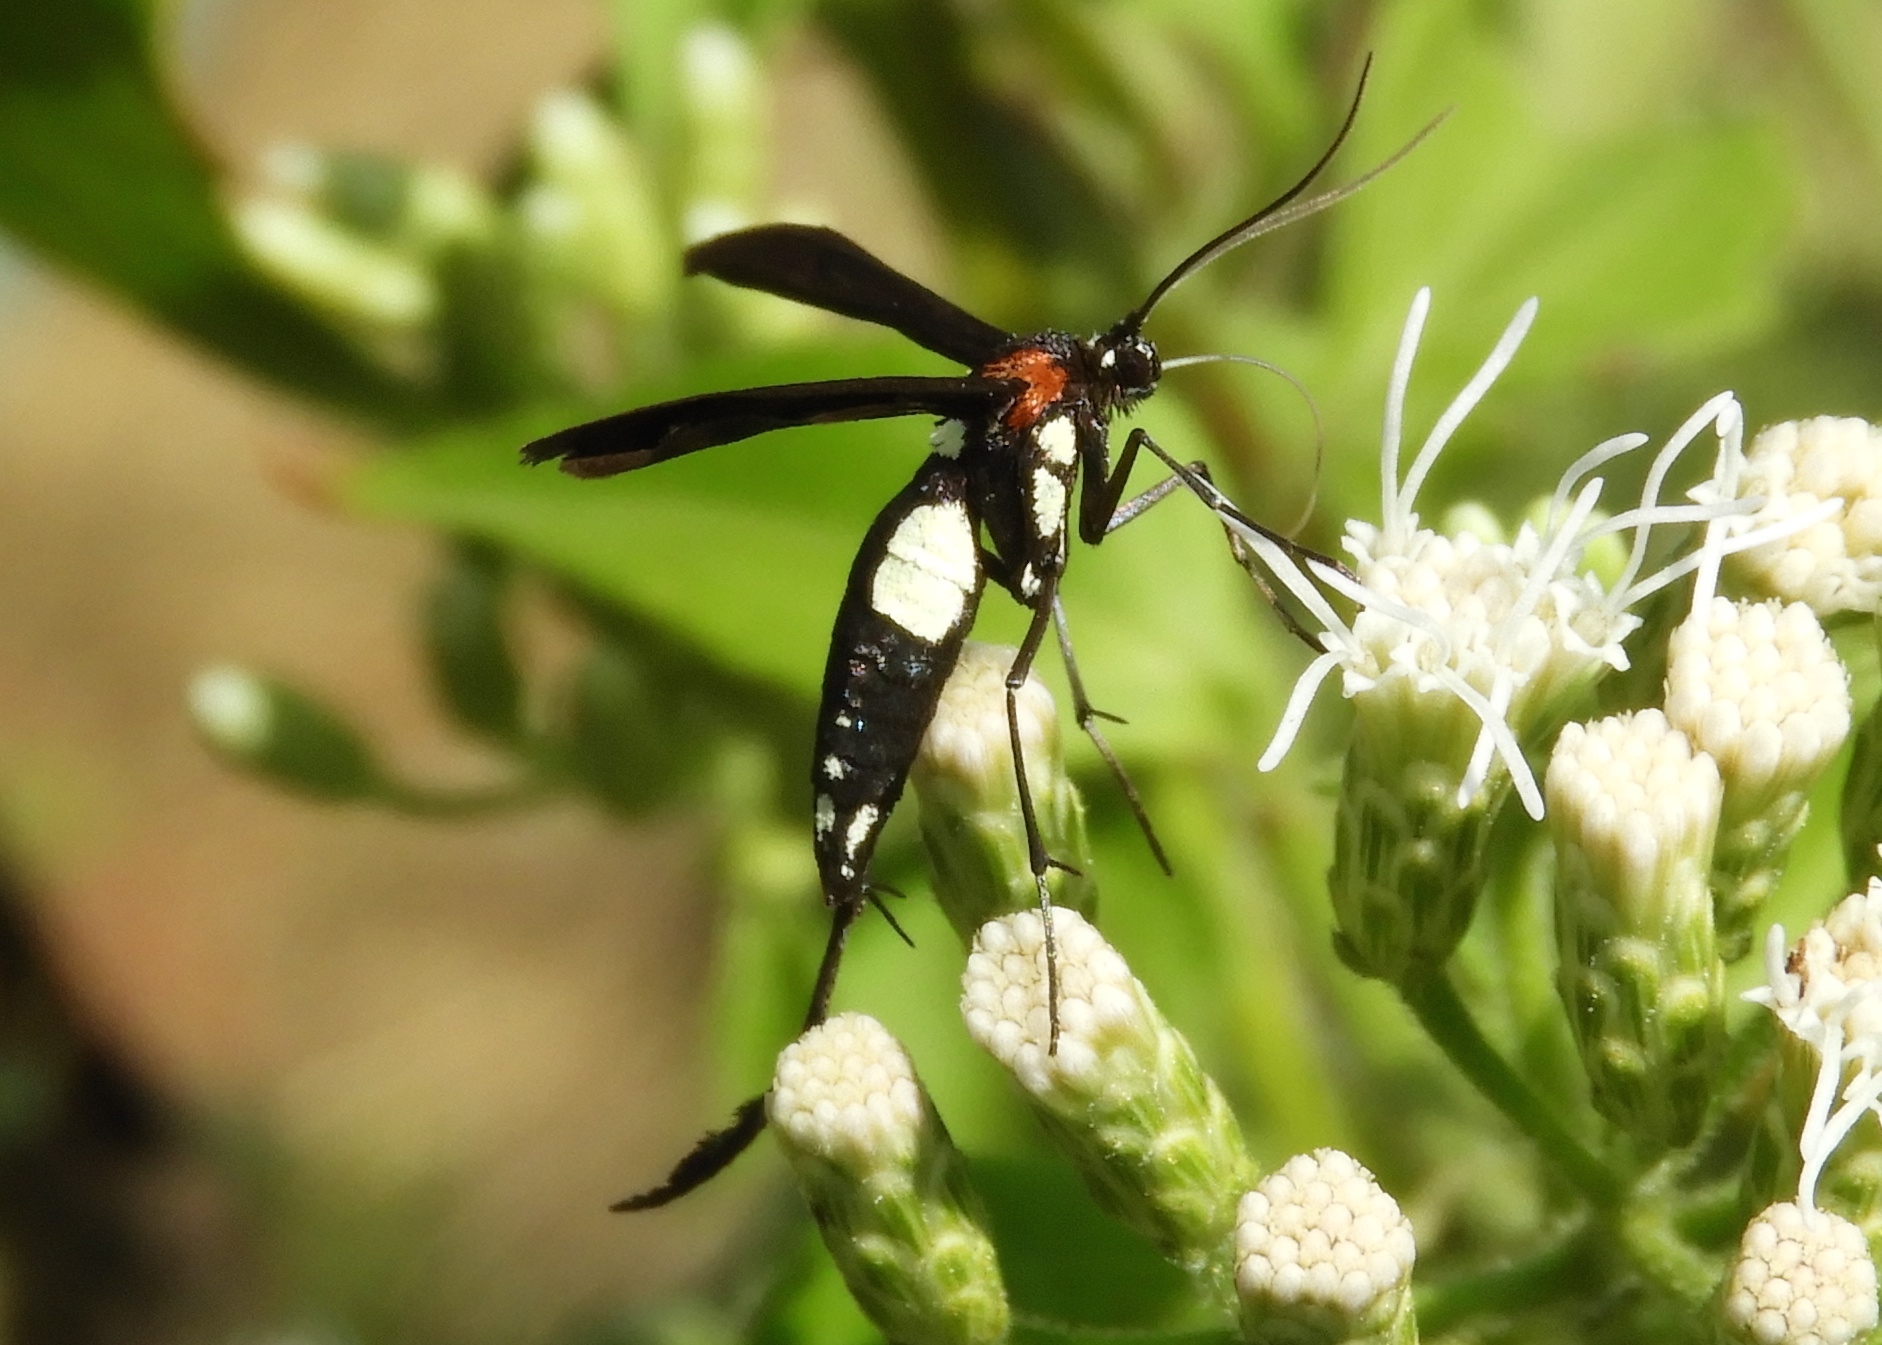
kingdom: Animalia
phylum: Arthropoda
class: Insecta
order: Lepidoptera
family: Pterophoridae
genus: Hellinsia
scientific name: Hellinsia chamelai
